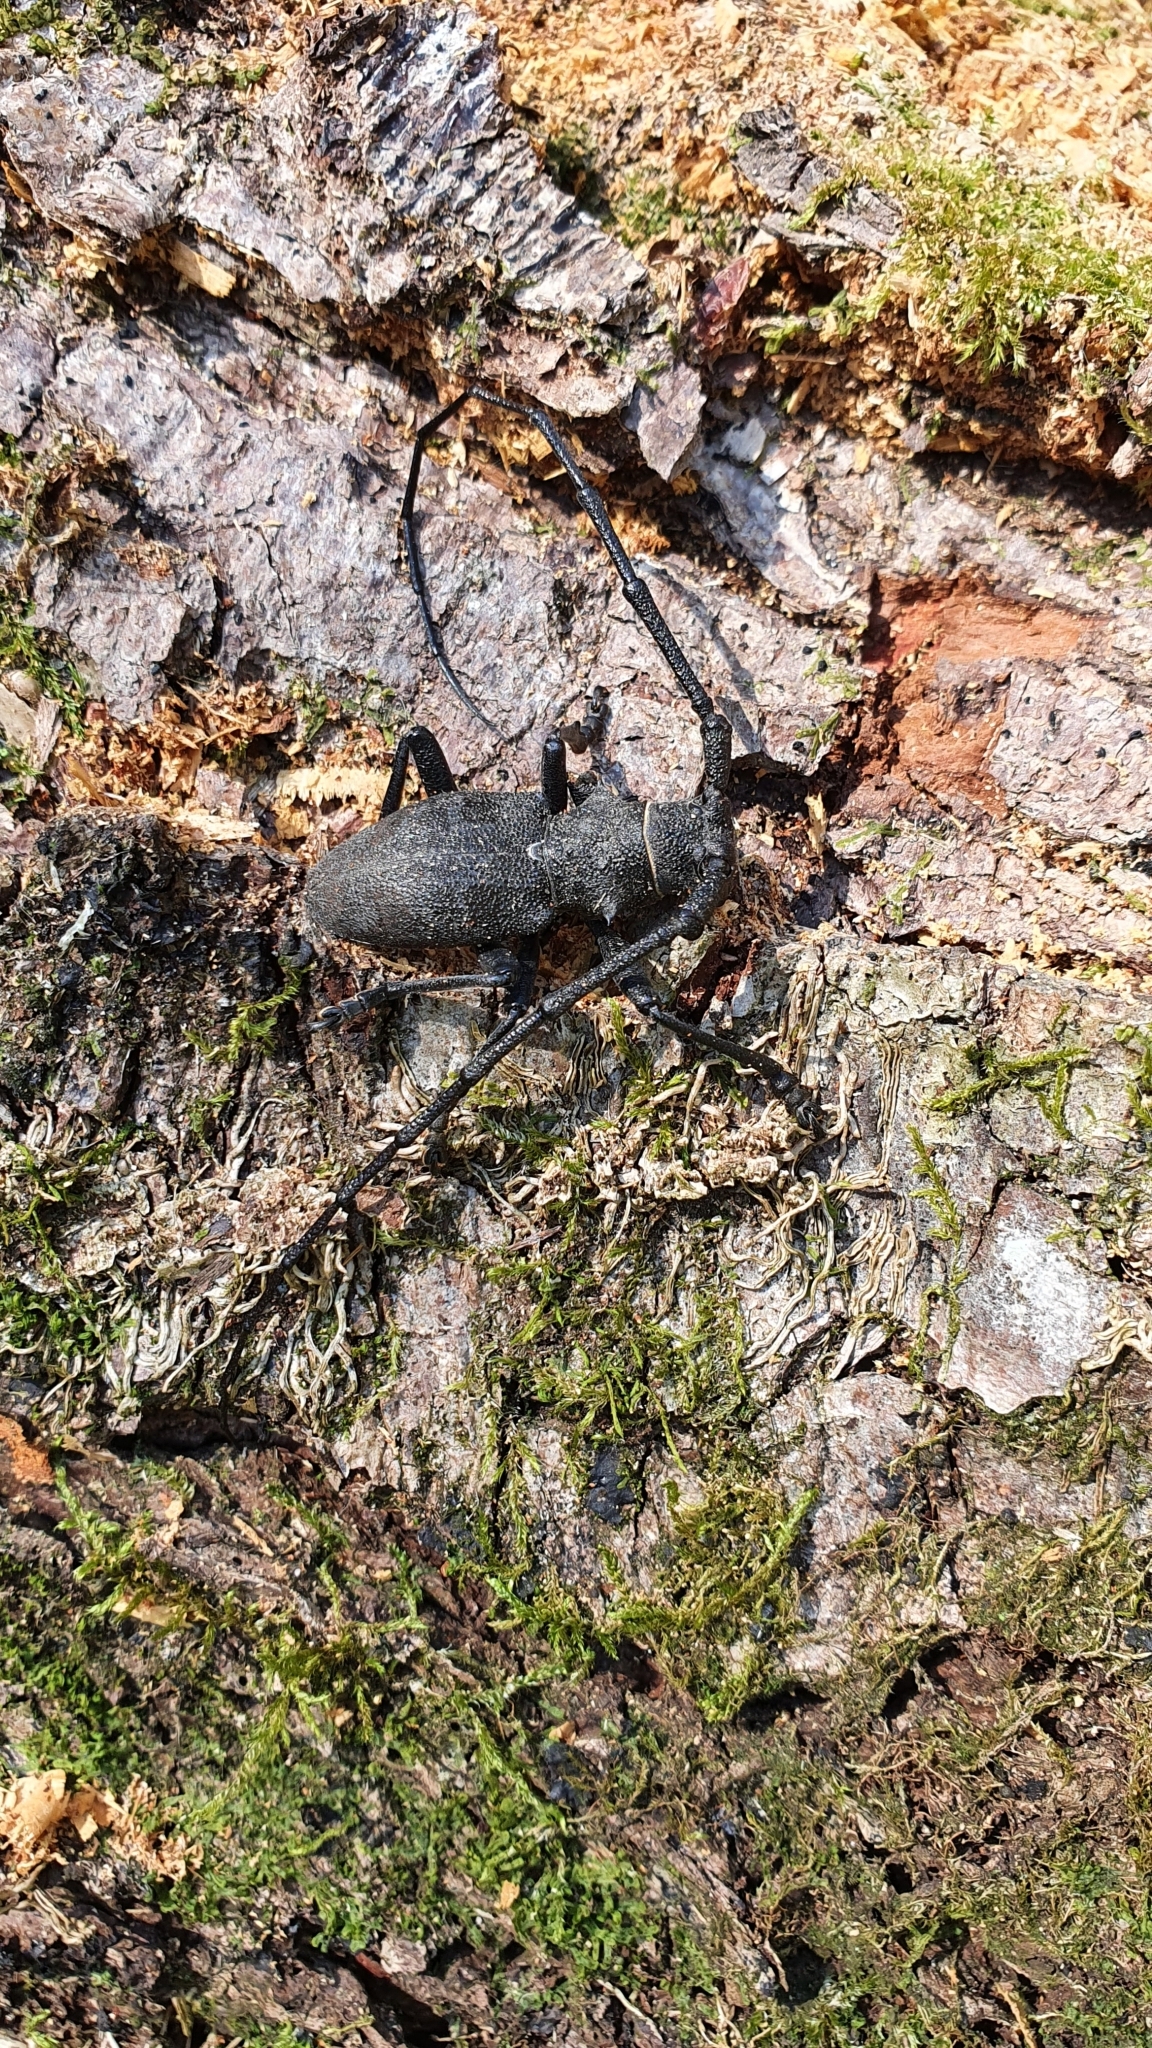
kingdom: Animalia
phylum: Arthropoda
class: Insecta
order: Coleoptera
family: Cerambycidae
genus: Morimus
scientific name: Morimus asper
